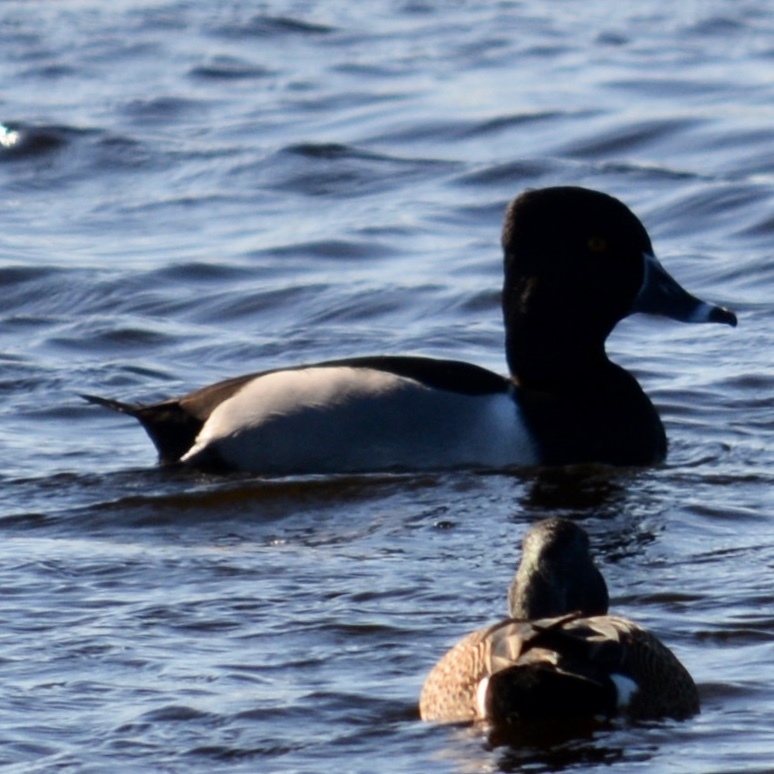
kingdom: Animalia
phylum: Chordata
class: Aves
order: Anseriformes
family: Anatidae
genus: Aythya
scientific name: Aythya collaris
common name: Ring-necked duck
